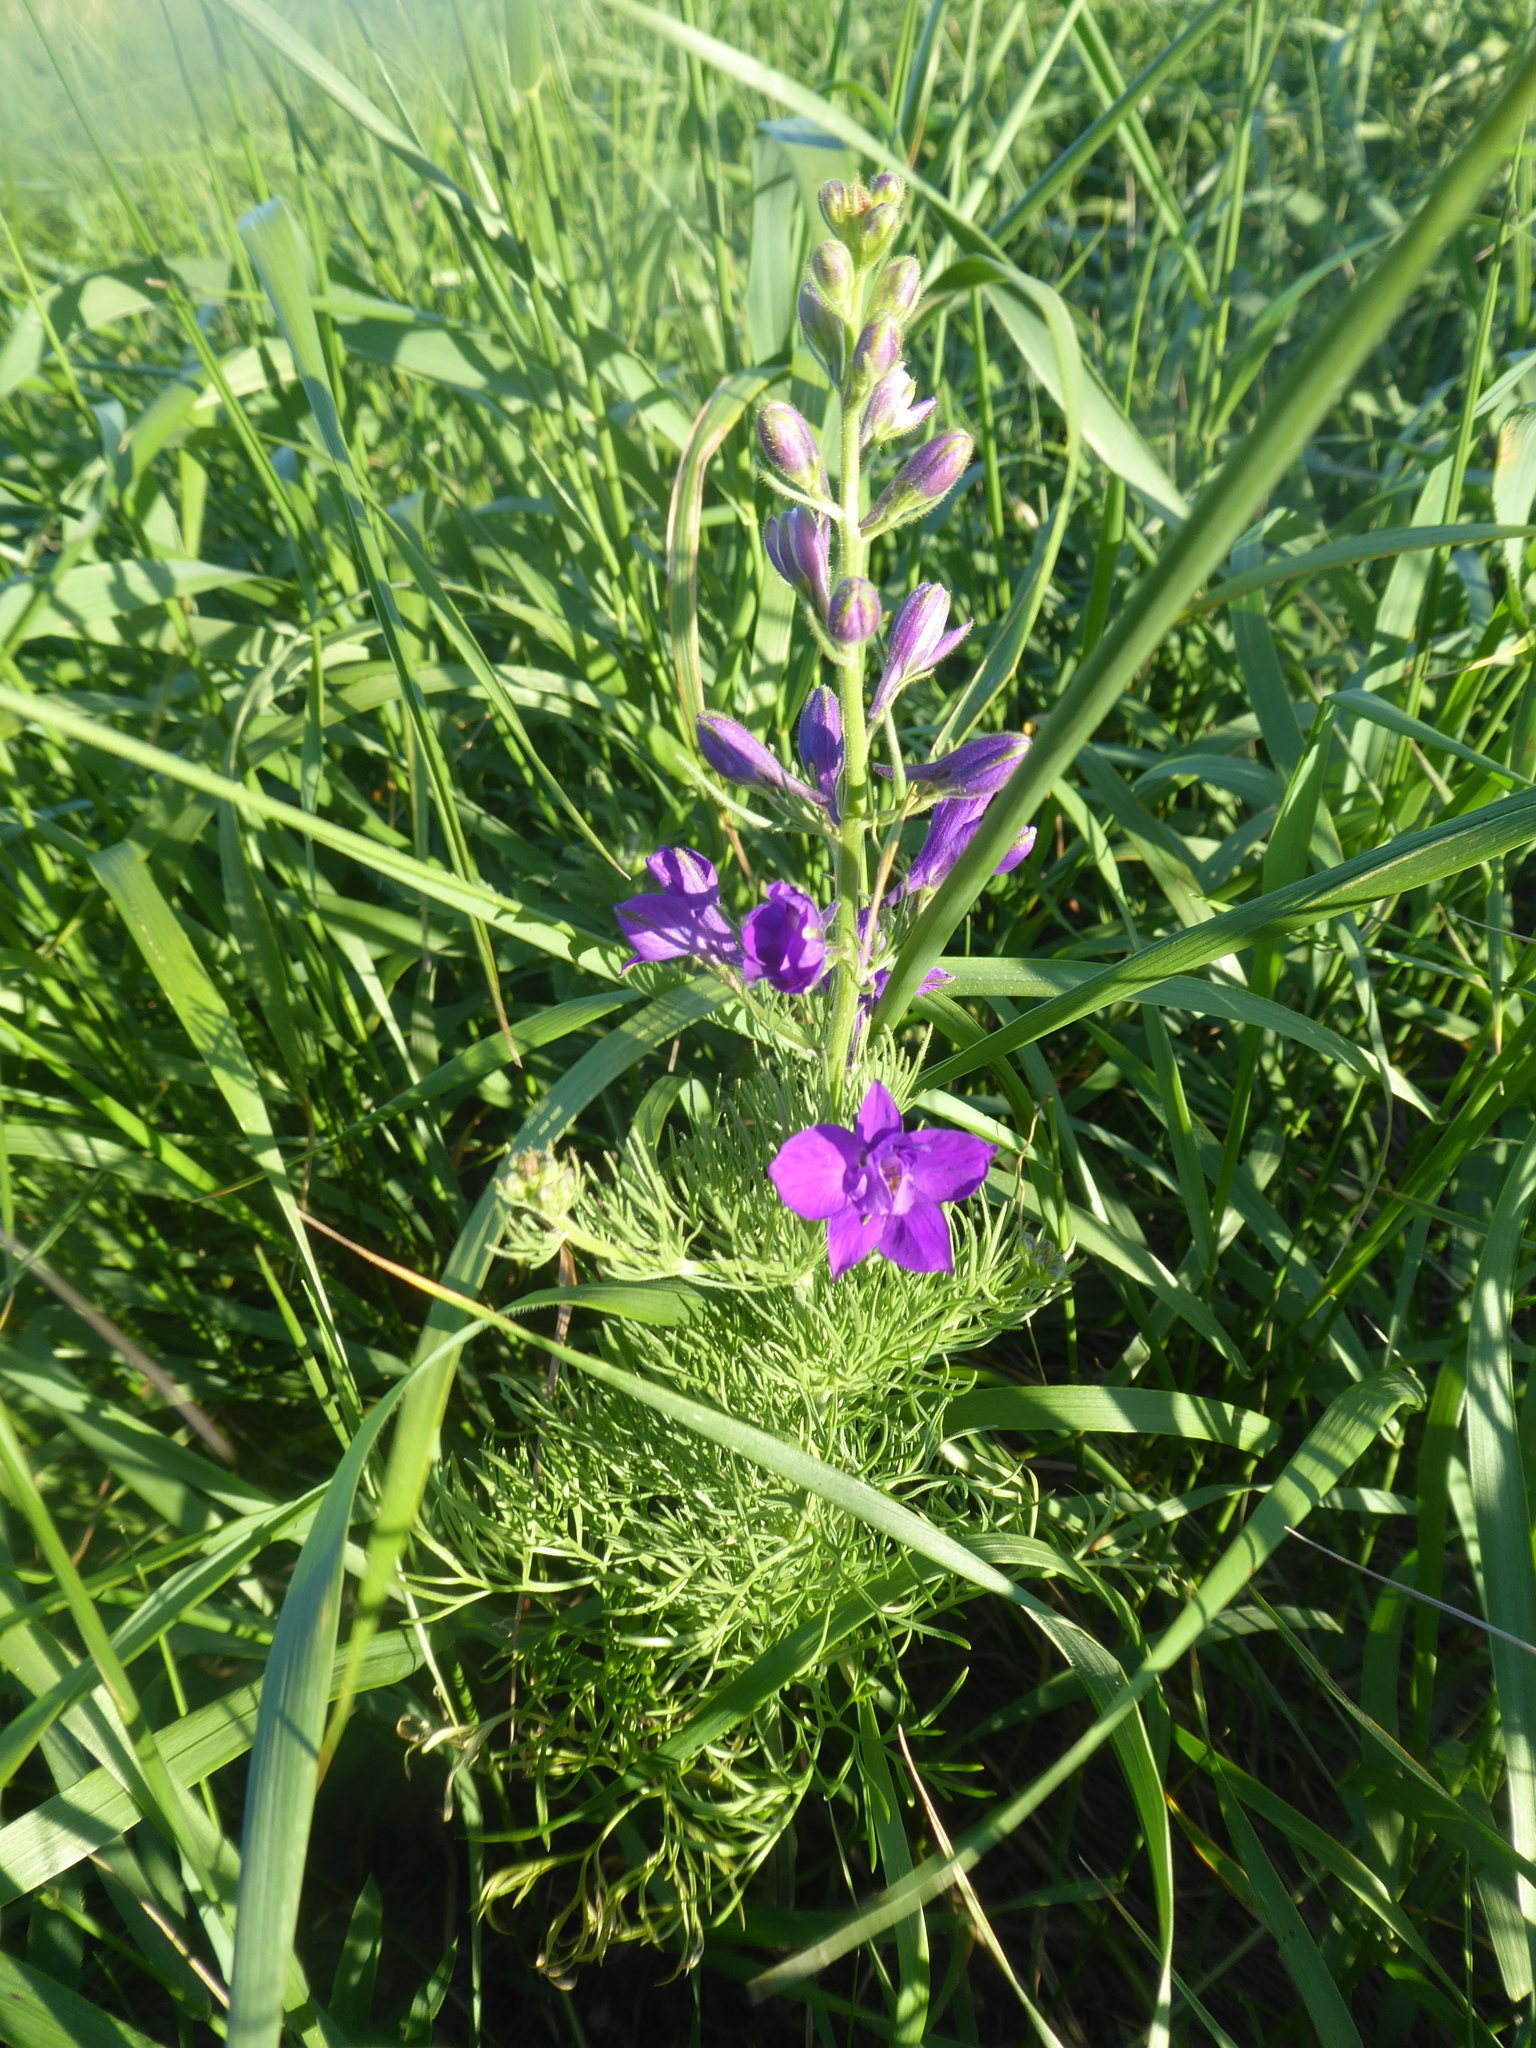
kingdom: Plantae
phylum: Tracheophyta
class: Magnoliopsida
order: Ranunculales
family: Ranunculaceae
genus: Delphinium
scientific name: Delphinium ajacis
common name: Doubtful knight's-spur
